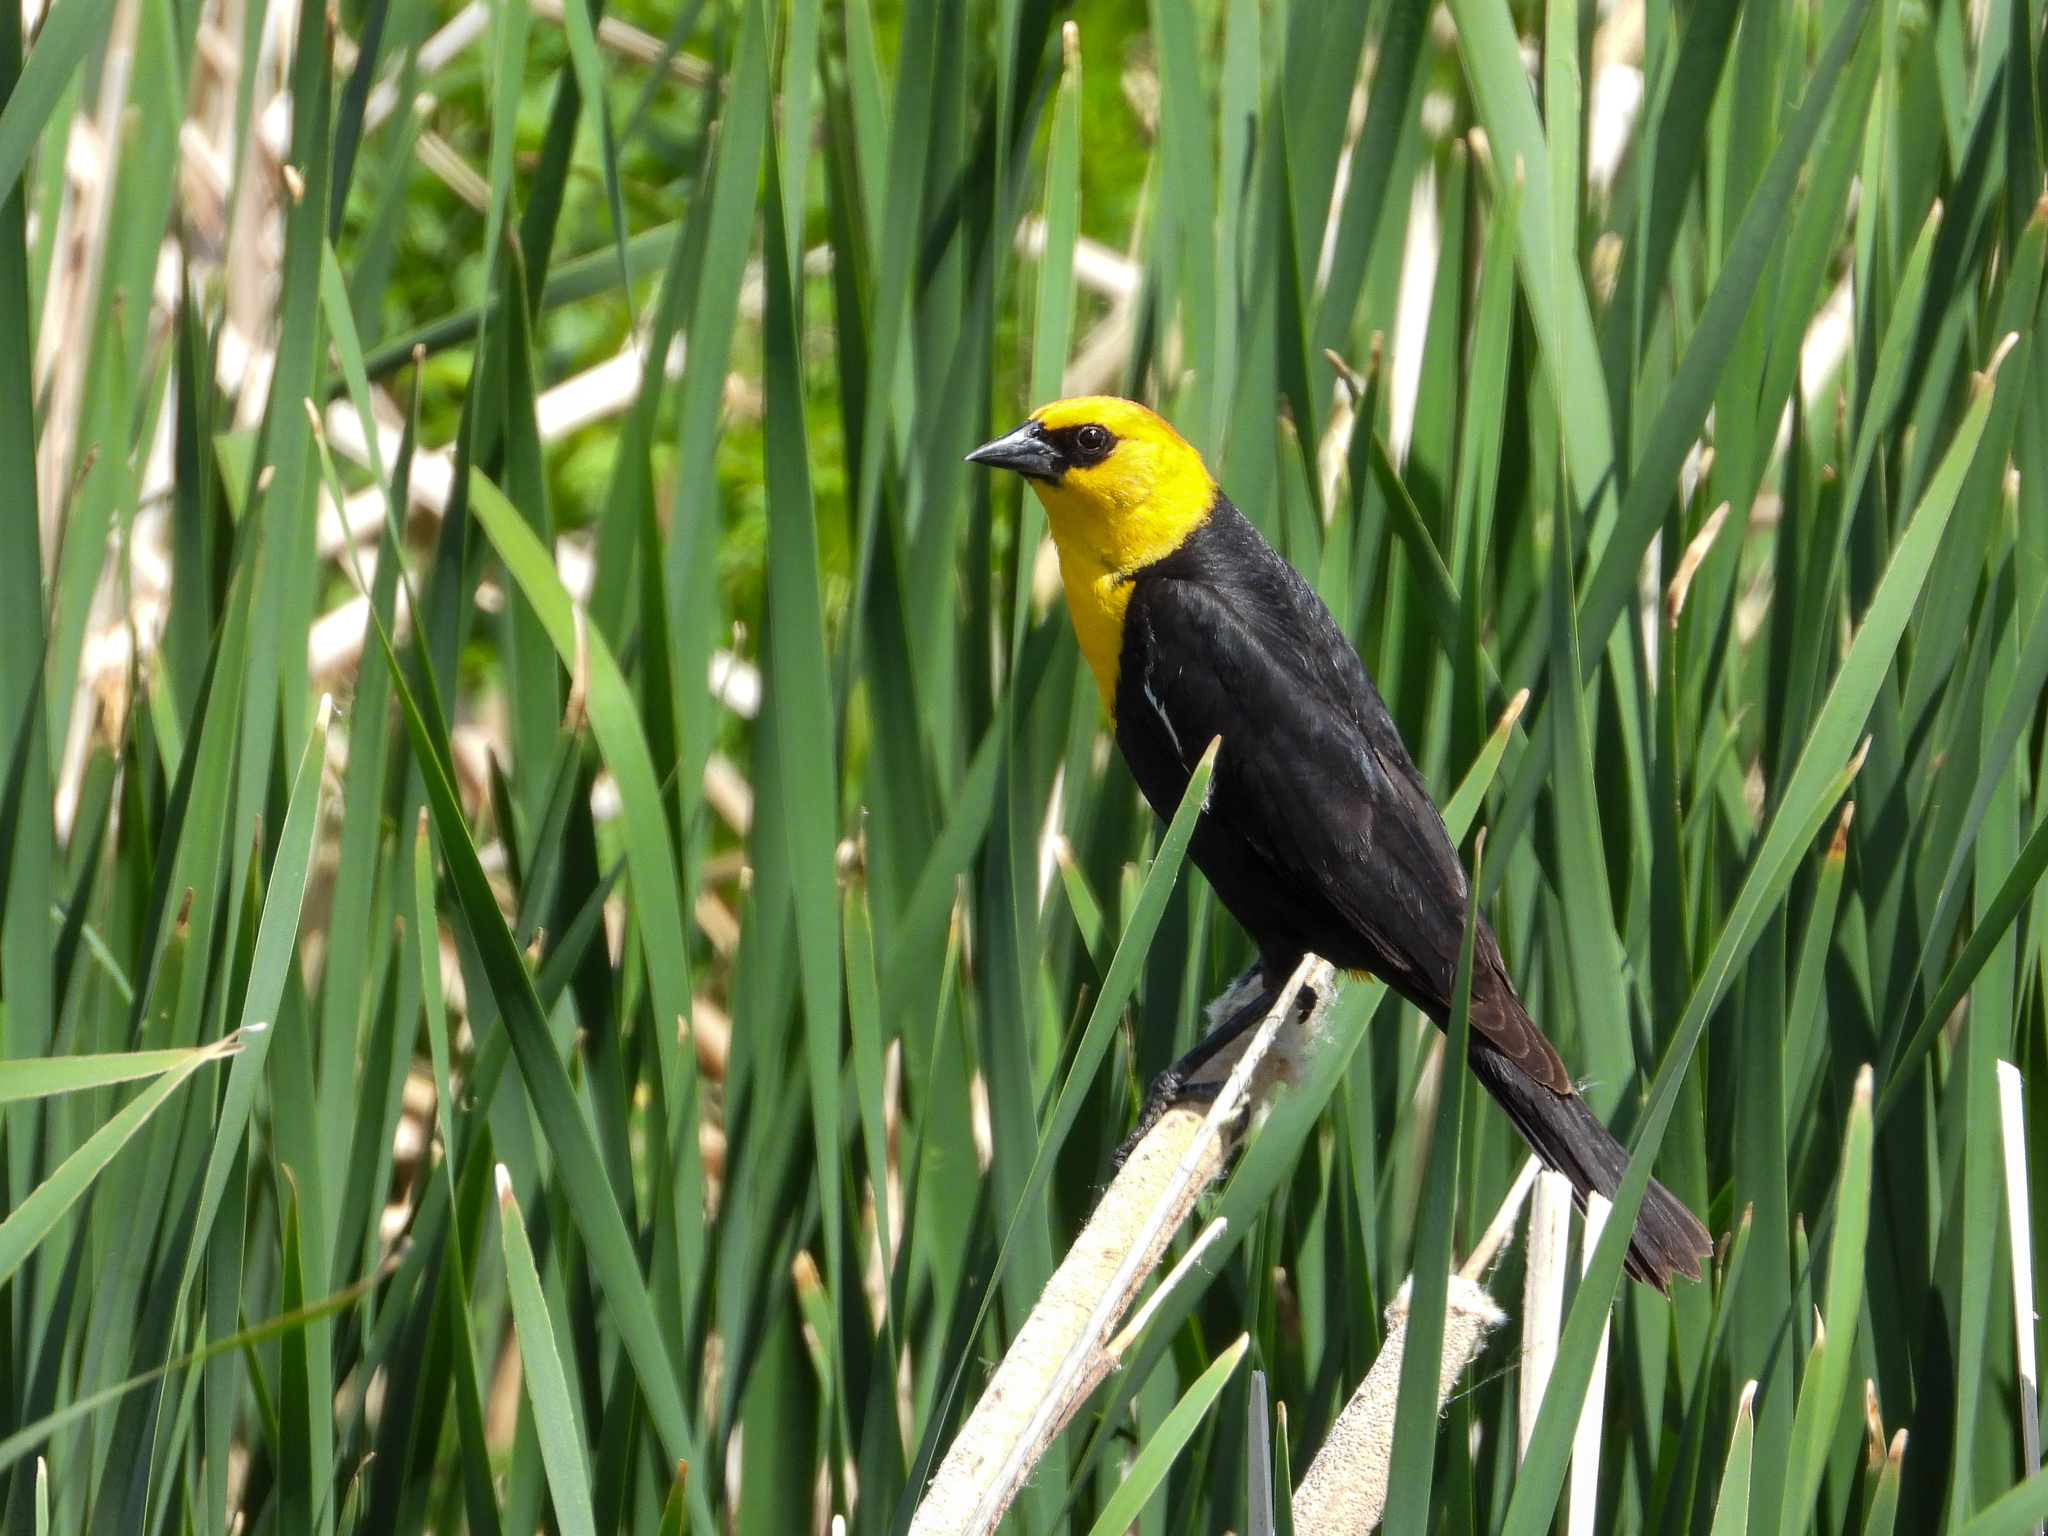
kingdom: Animalia
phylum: Chordata
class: Aves
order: Passeriformes
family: Icteridae
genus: Xanthocephalus
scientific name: Xanthocephalus xanthocephalus
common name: Yellow-headed blackbird
